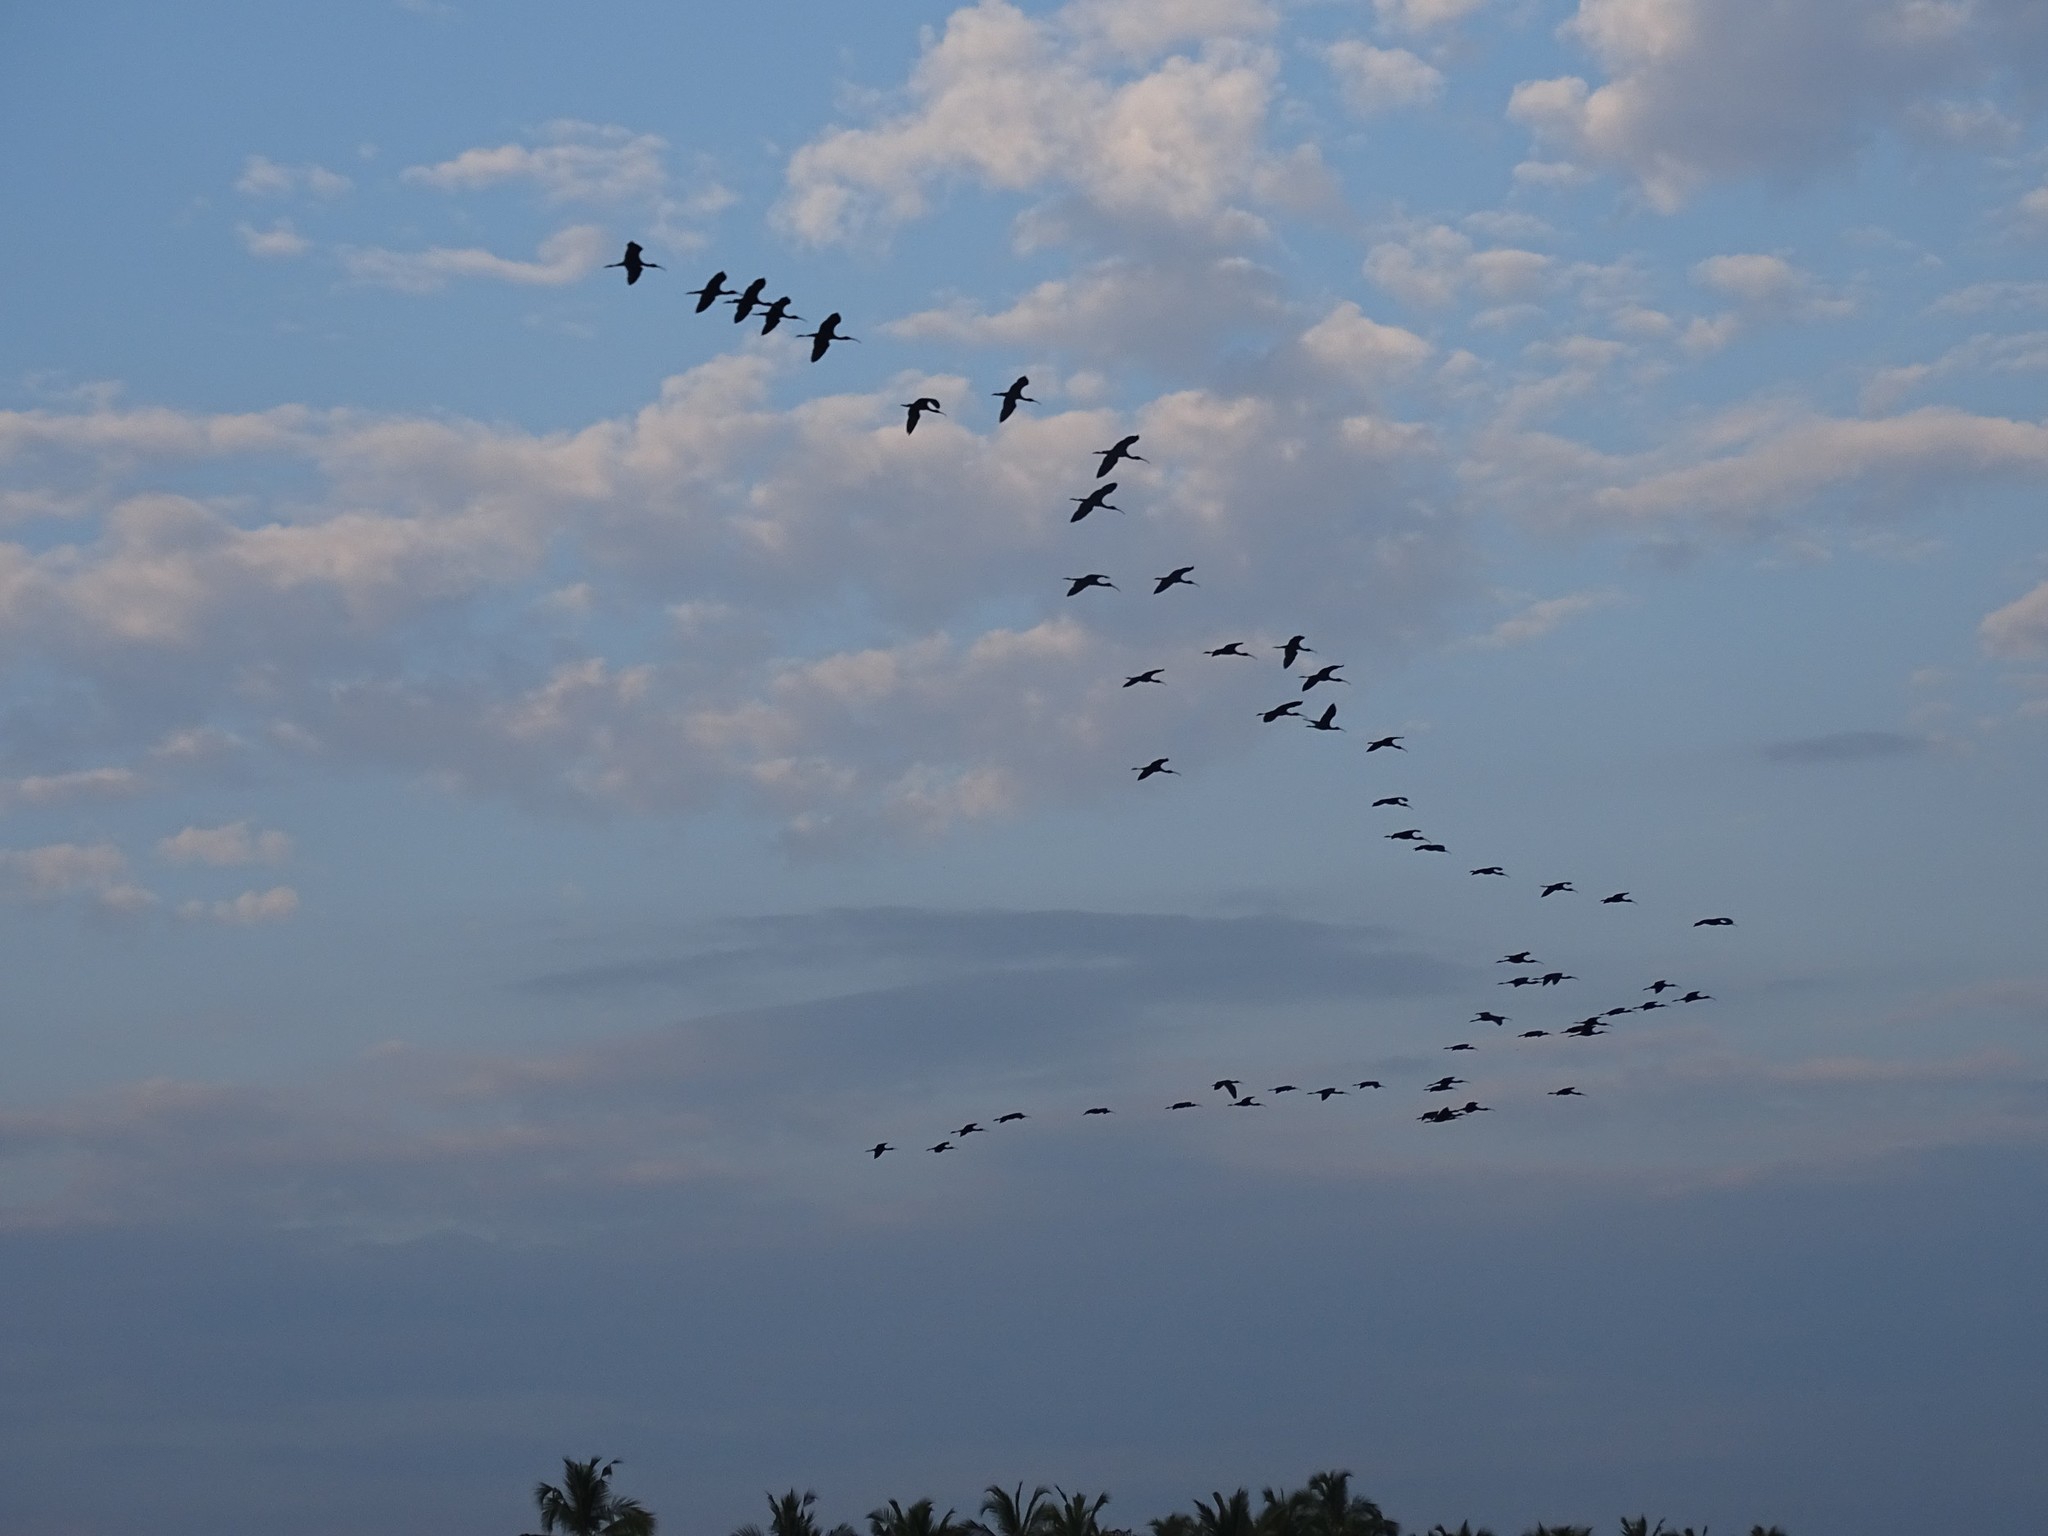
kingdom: Animalia
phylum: Chordata
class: Aves
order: Pelecaniformes
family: Threskiornithidae
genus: Plegadis
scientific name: Plegadis falcinellus
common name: Glossy ibis
